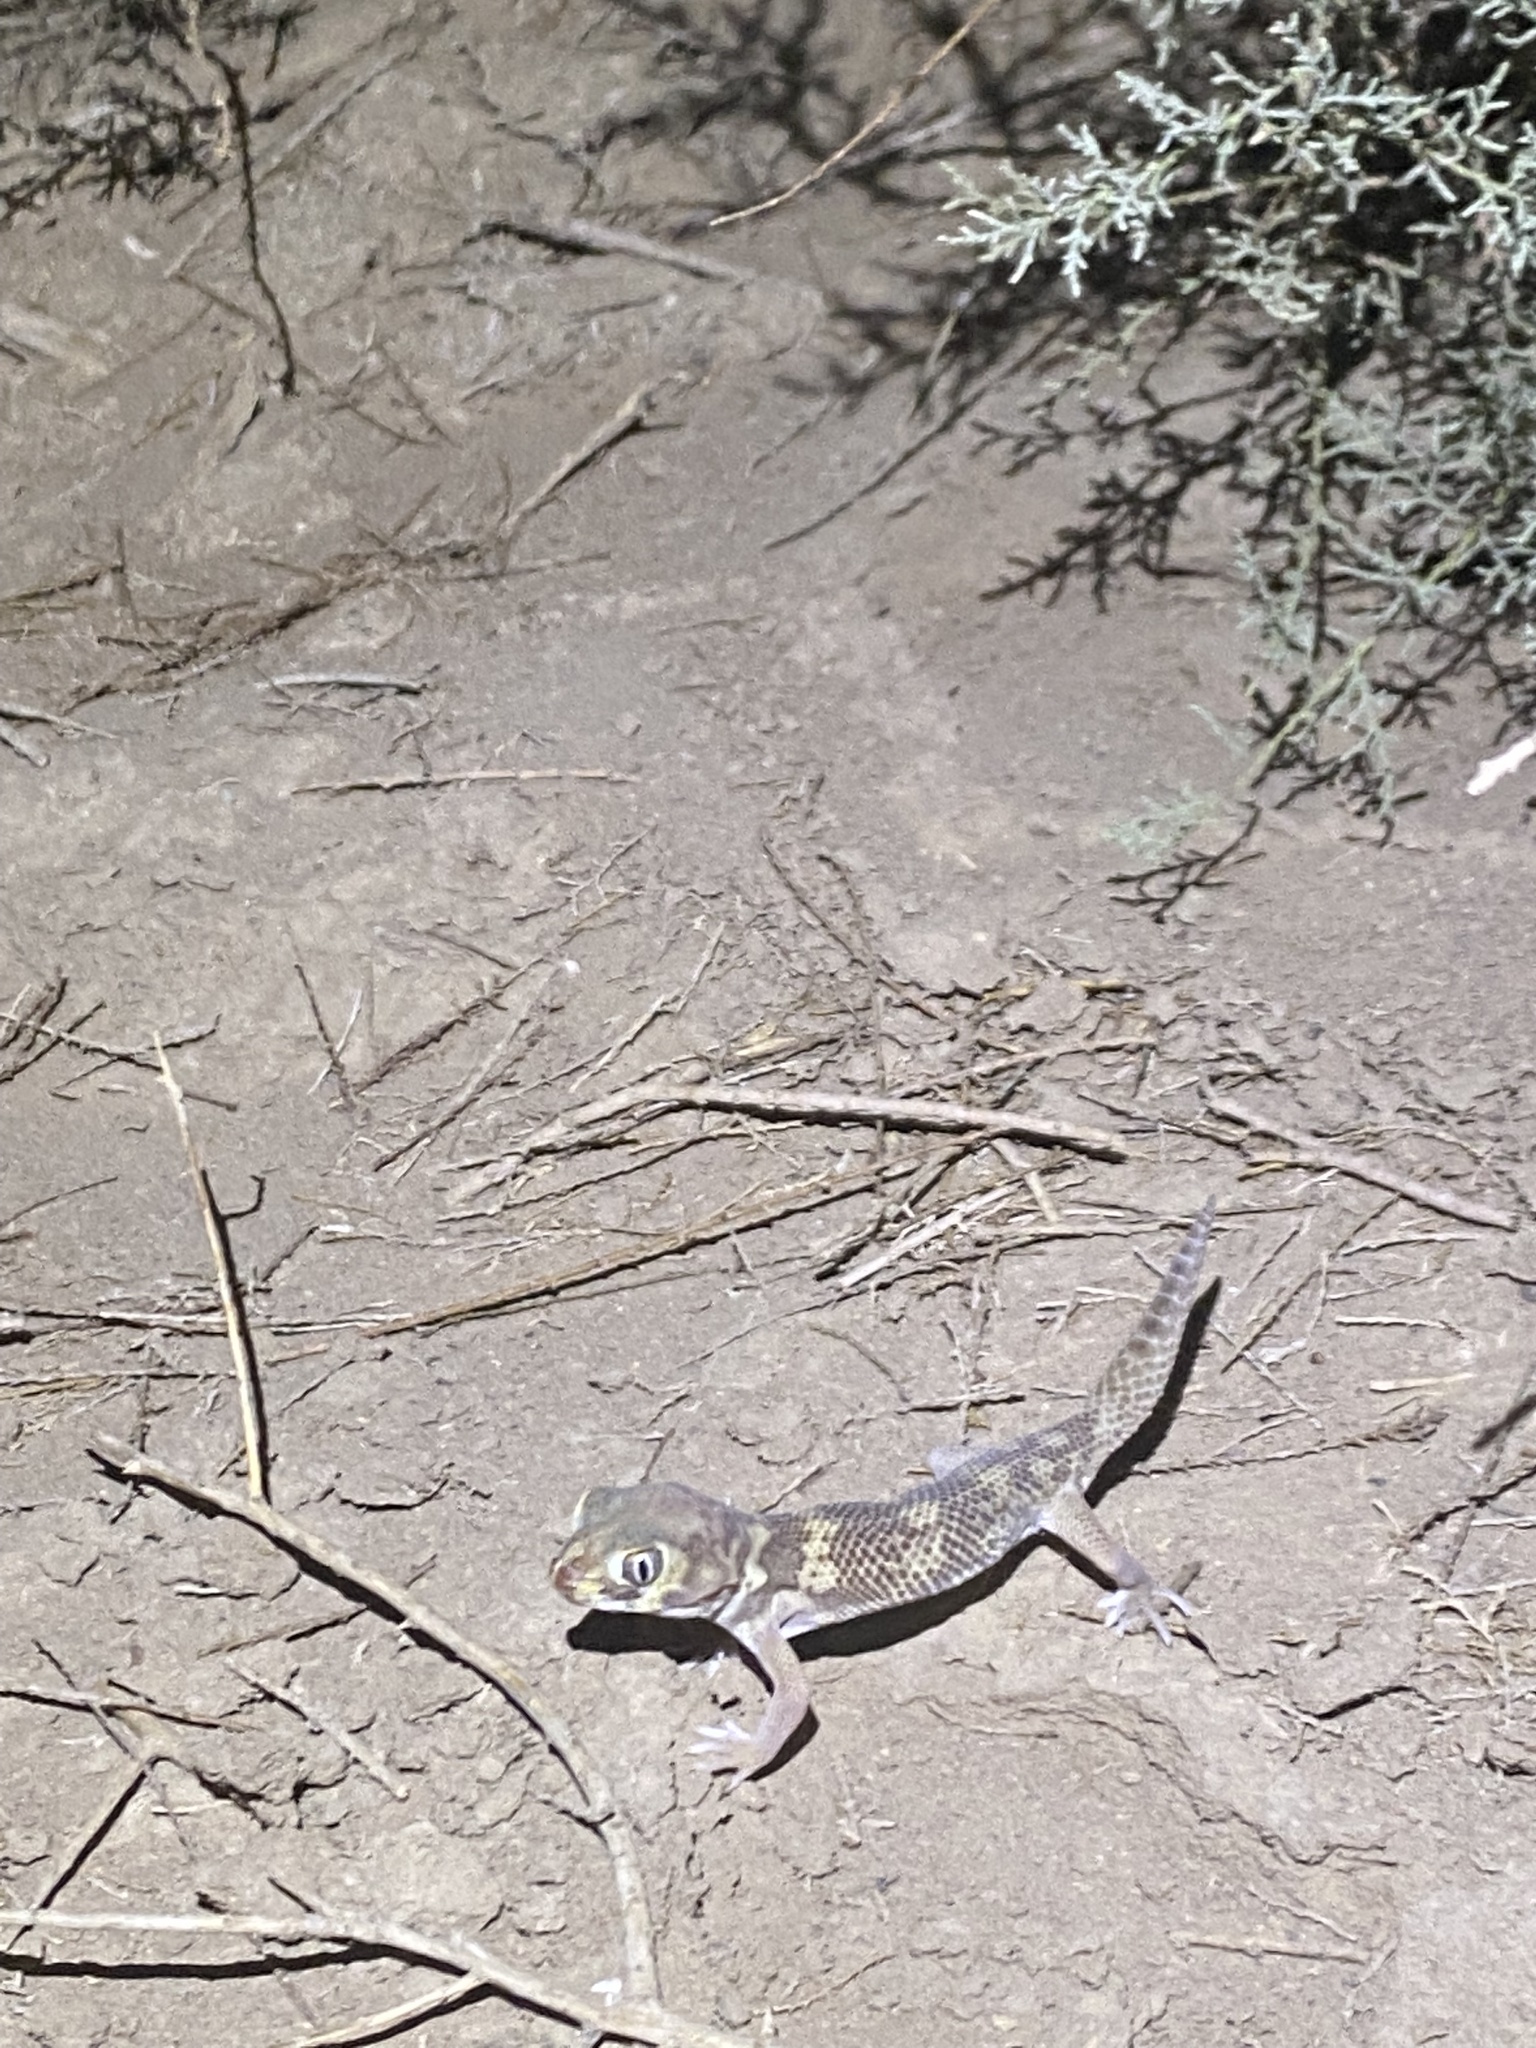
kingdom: Animalia
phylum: Chordata
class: Squamata
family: Sphaerodactylidae
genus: Teratoscincus
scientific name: Teratoscincus bedriagai
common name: Bedriaga's plate-tailed gecko
